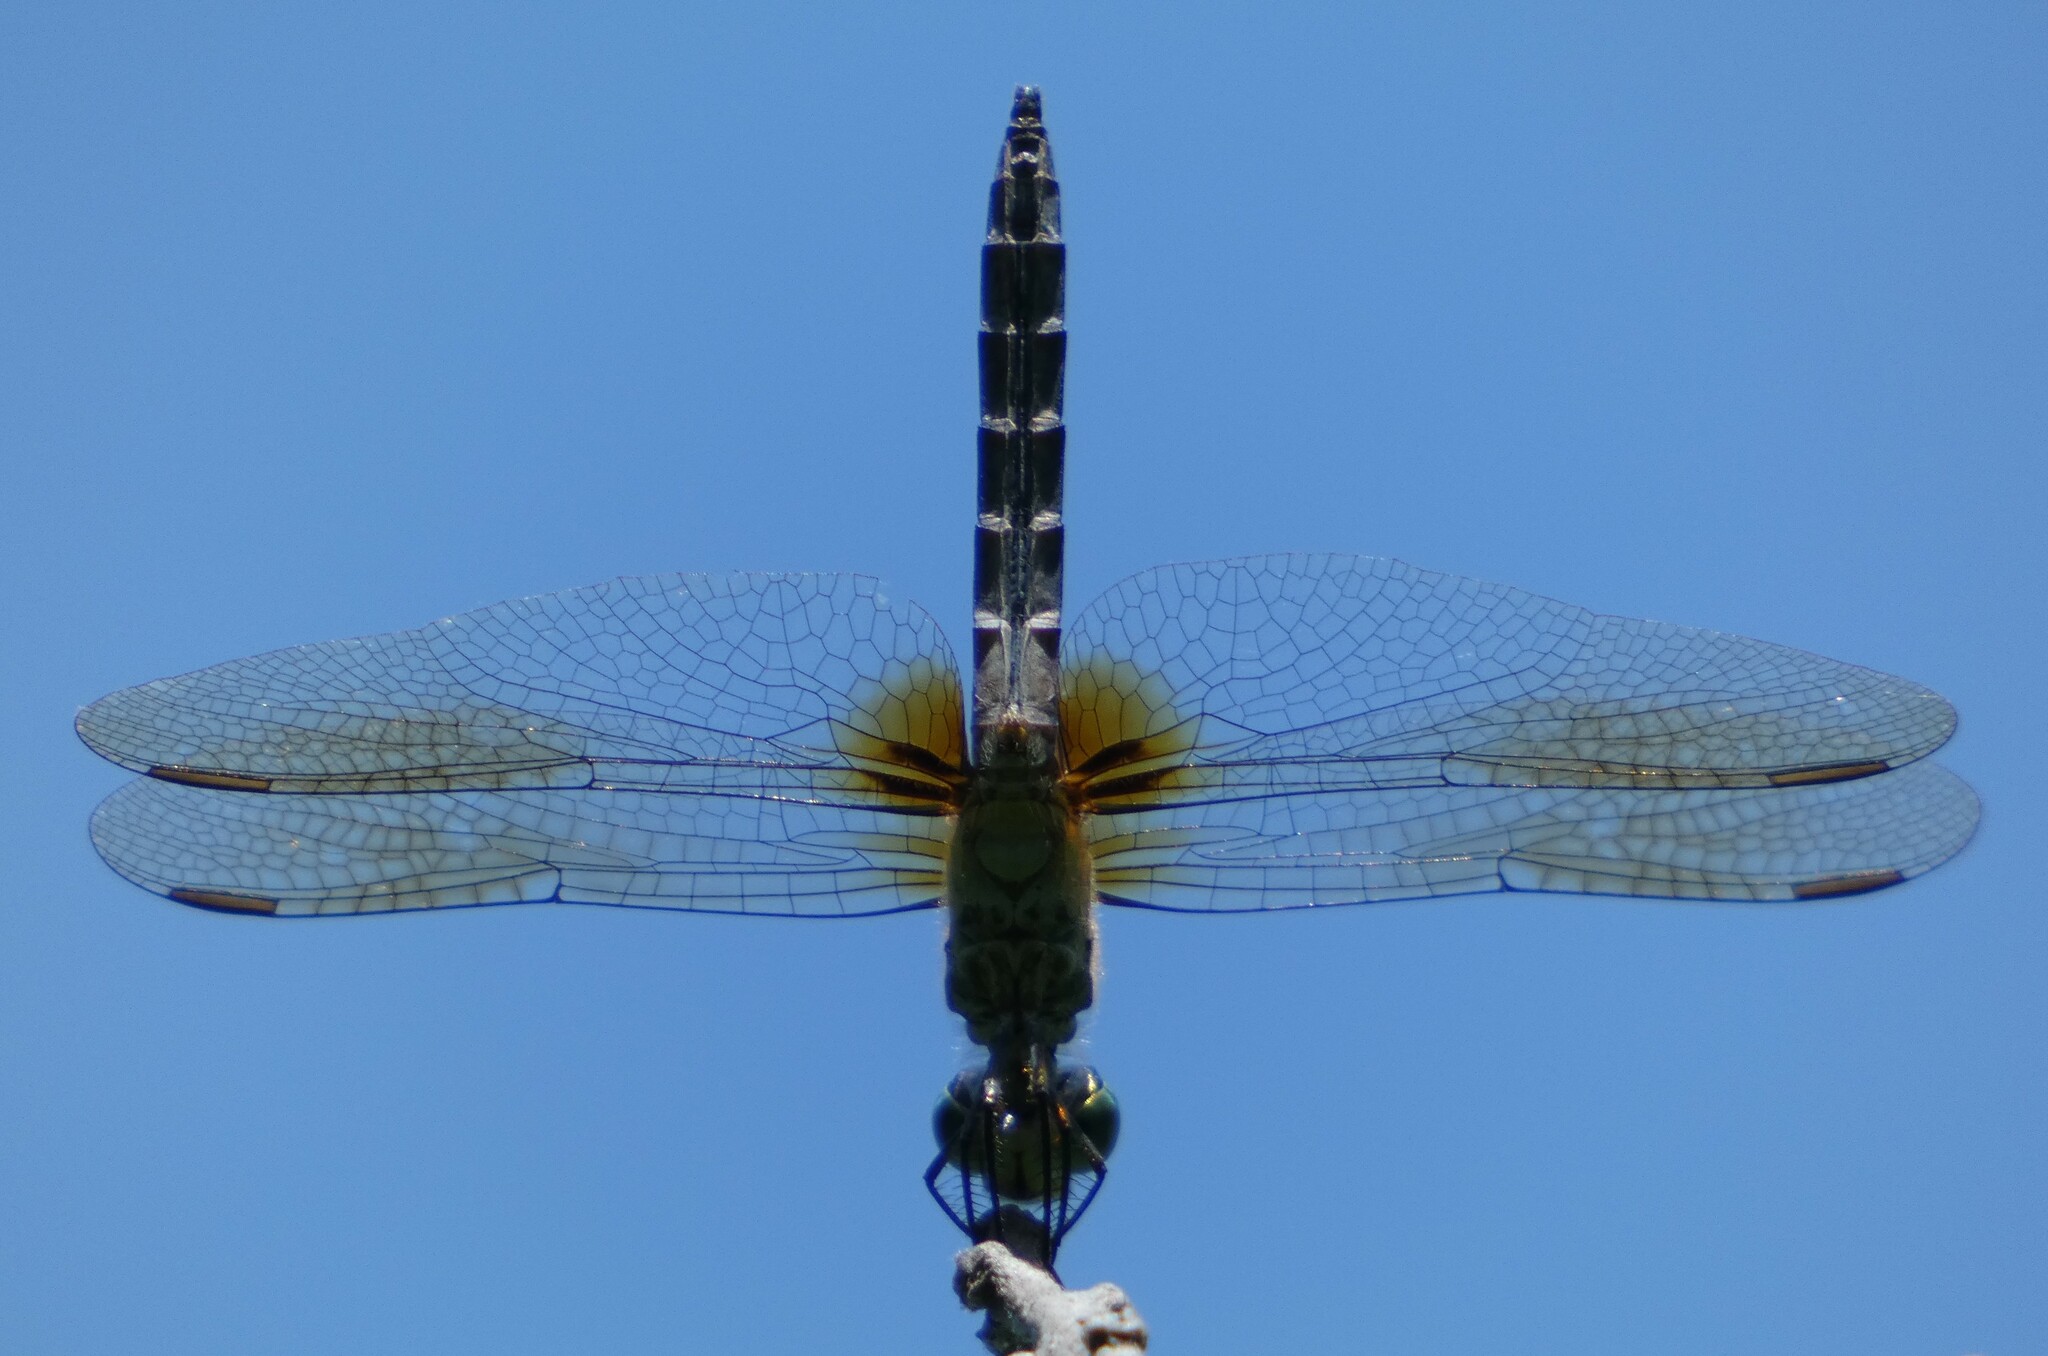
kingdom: Animalia
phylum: Arthropoda
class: Insecta
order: Odonata
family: Libellulidae
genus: Pachydiplax
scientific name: Pachydiplax longipennis
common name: Blue dasher
